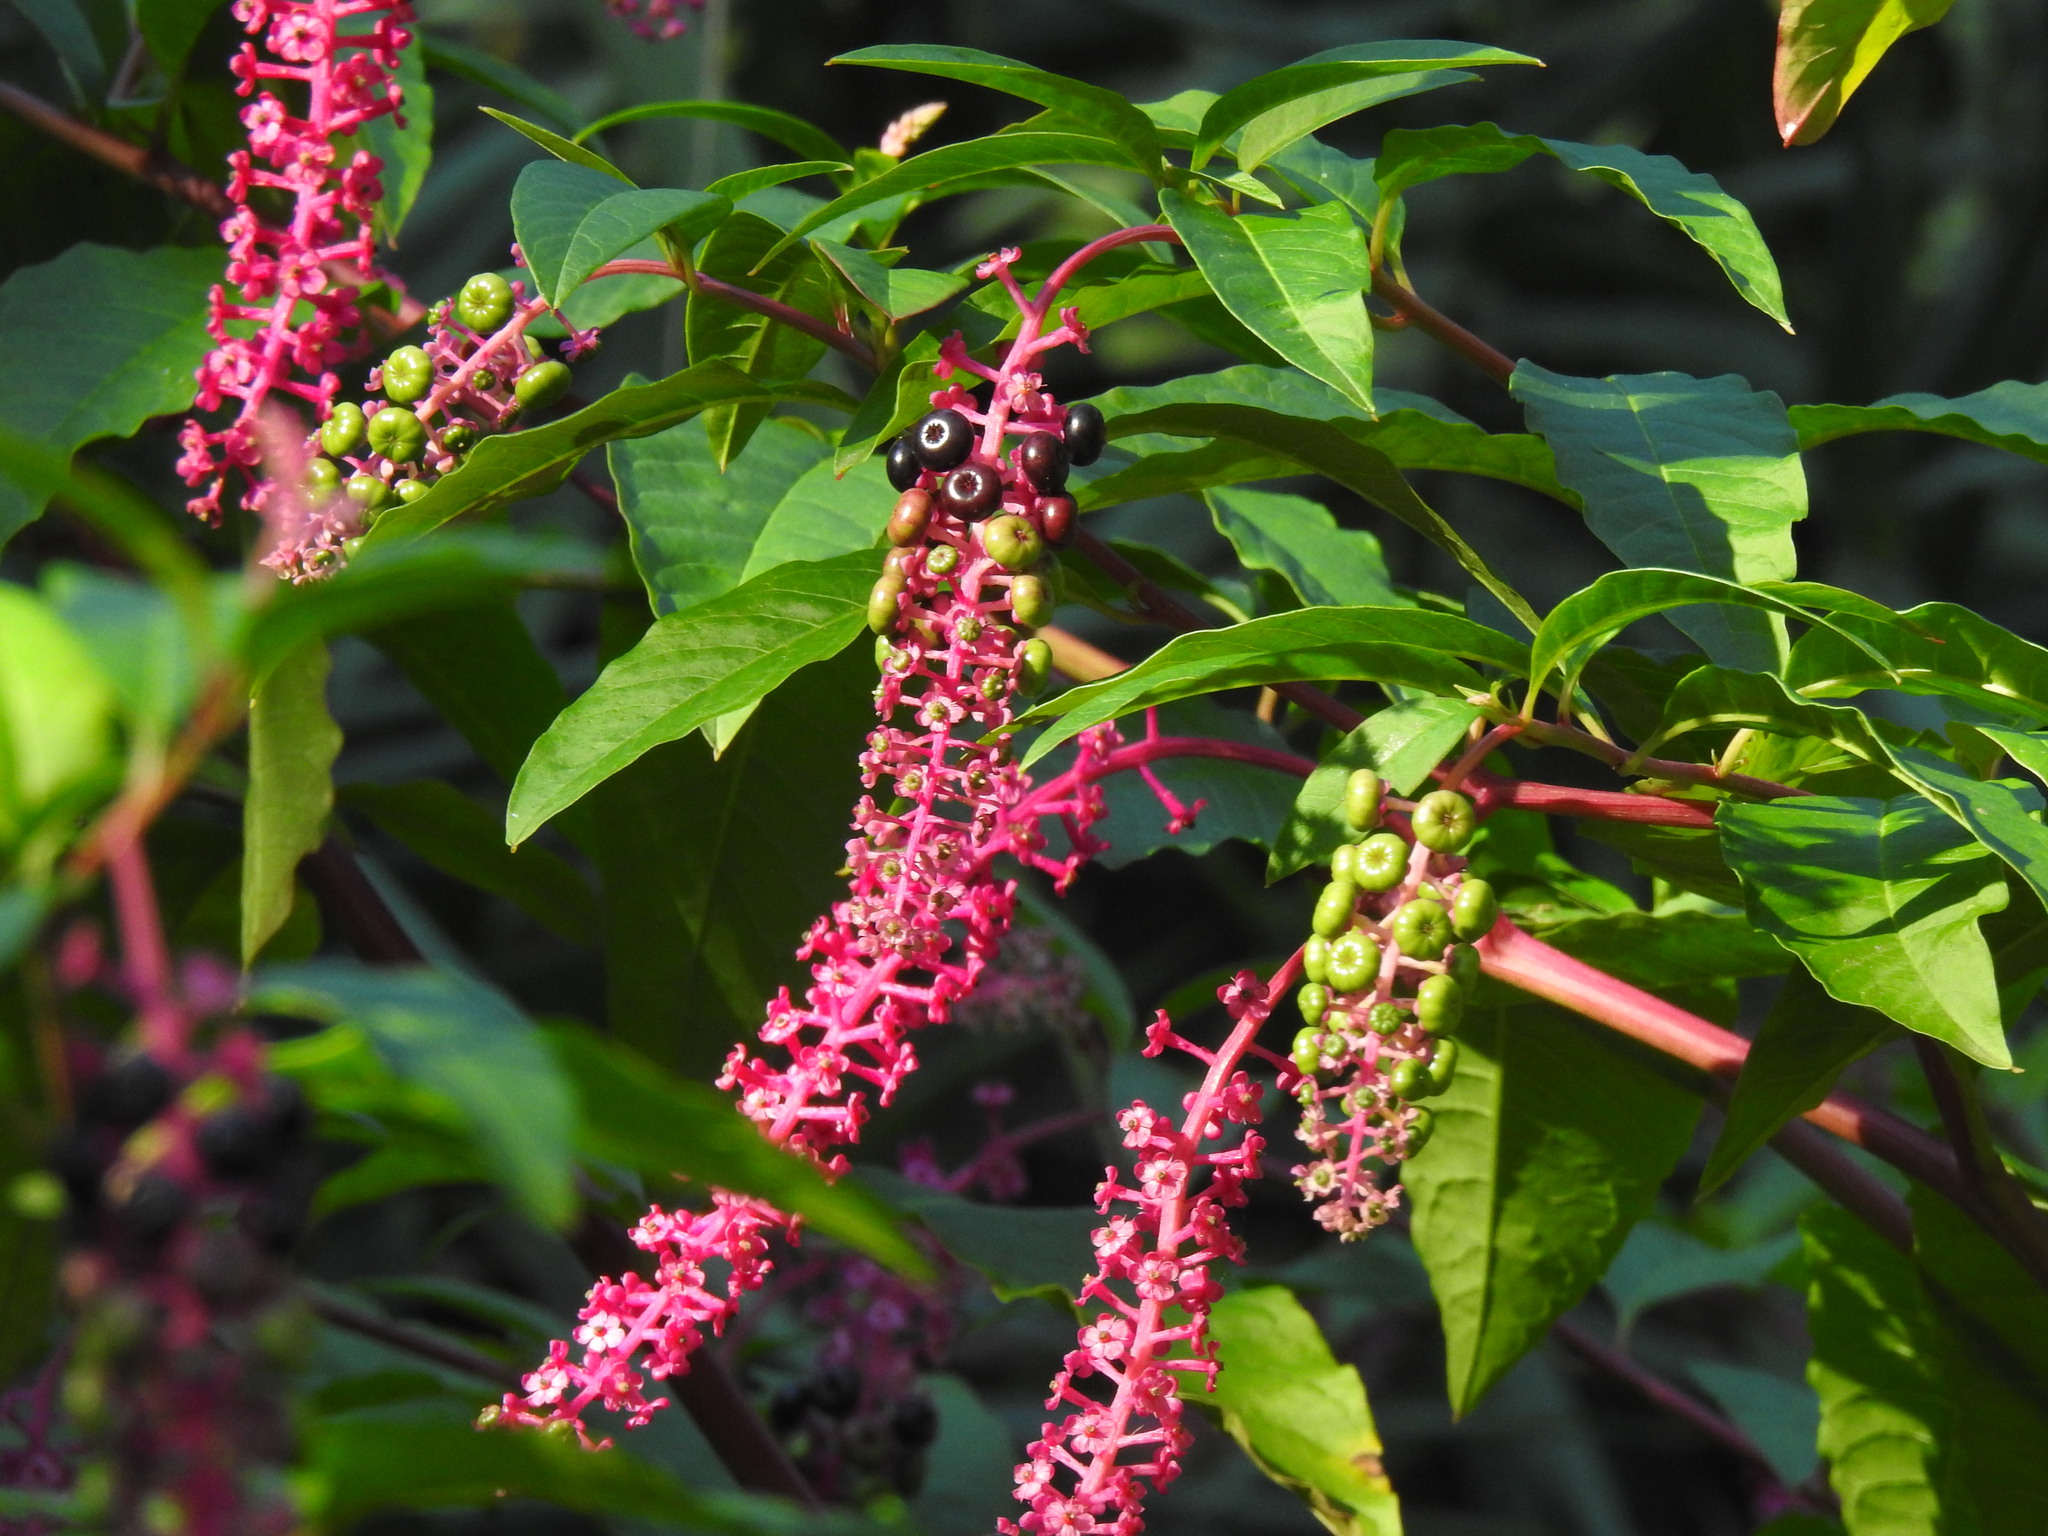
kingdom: Plantae
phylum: Tracheophyta
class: Magnoliopsida
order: Caryophyllales
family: Phytolaccaceae
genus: Phytolacca
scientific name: Phytolacca americana
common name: American pokeweed
